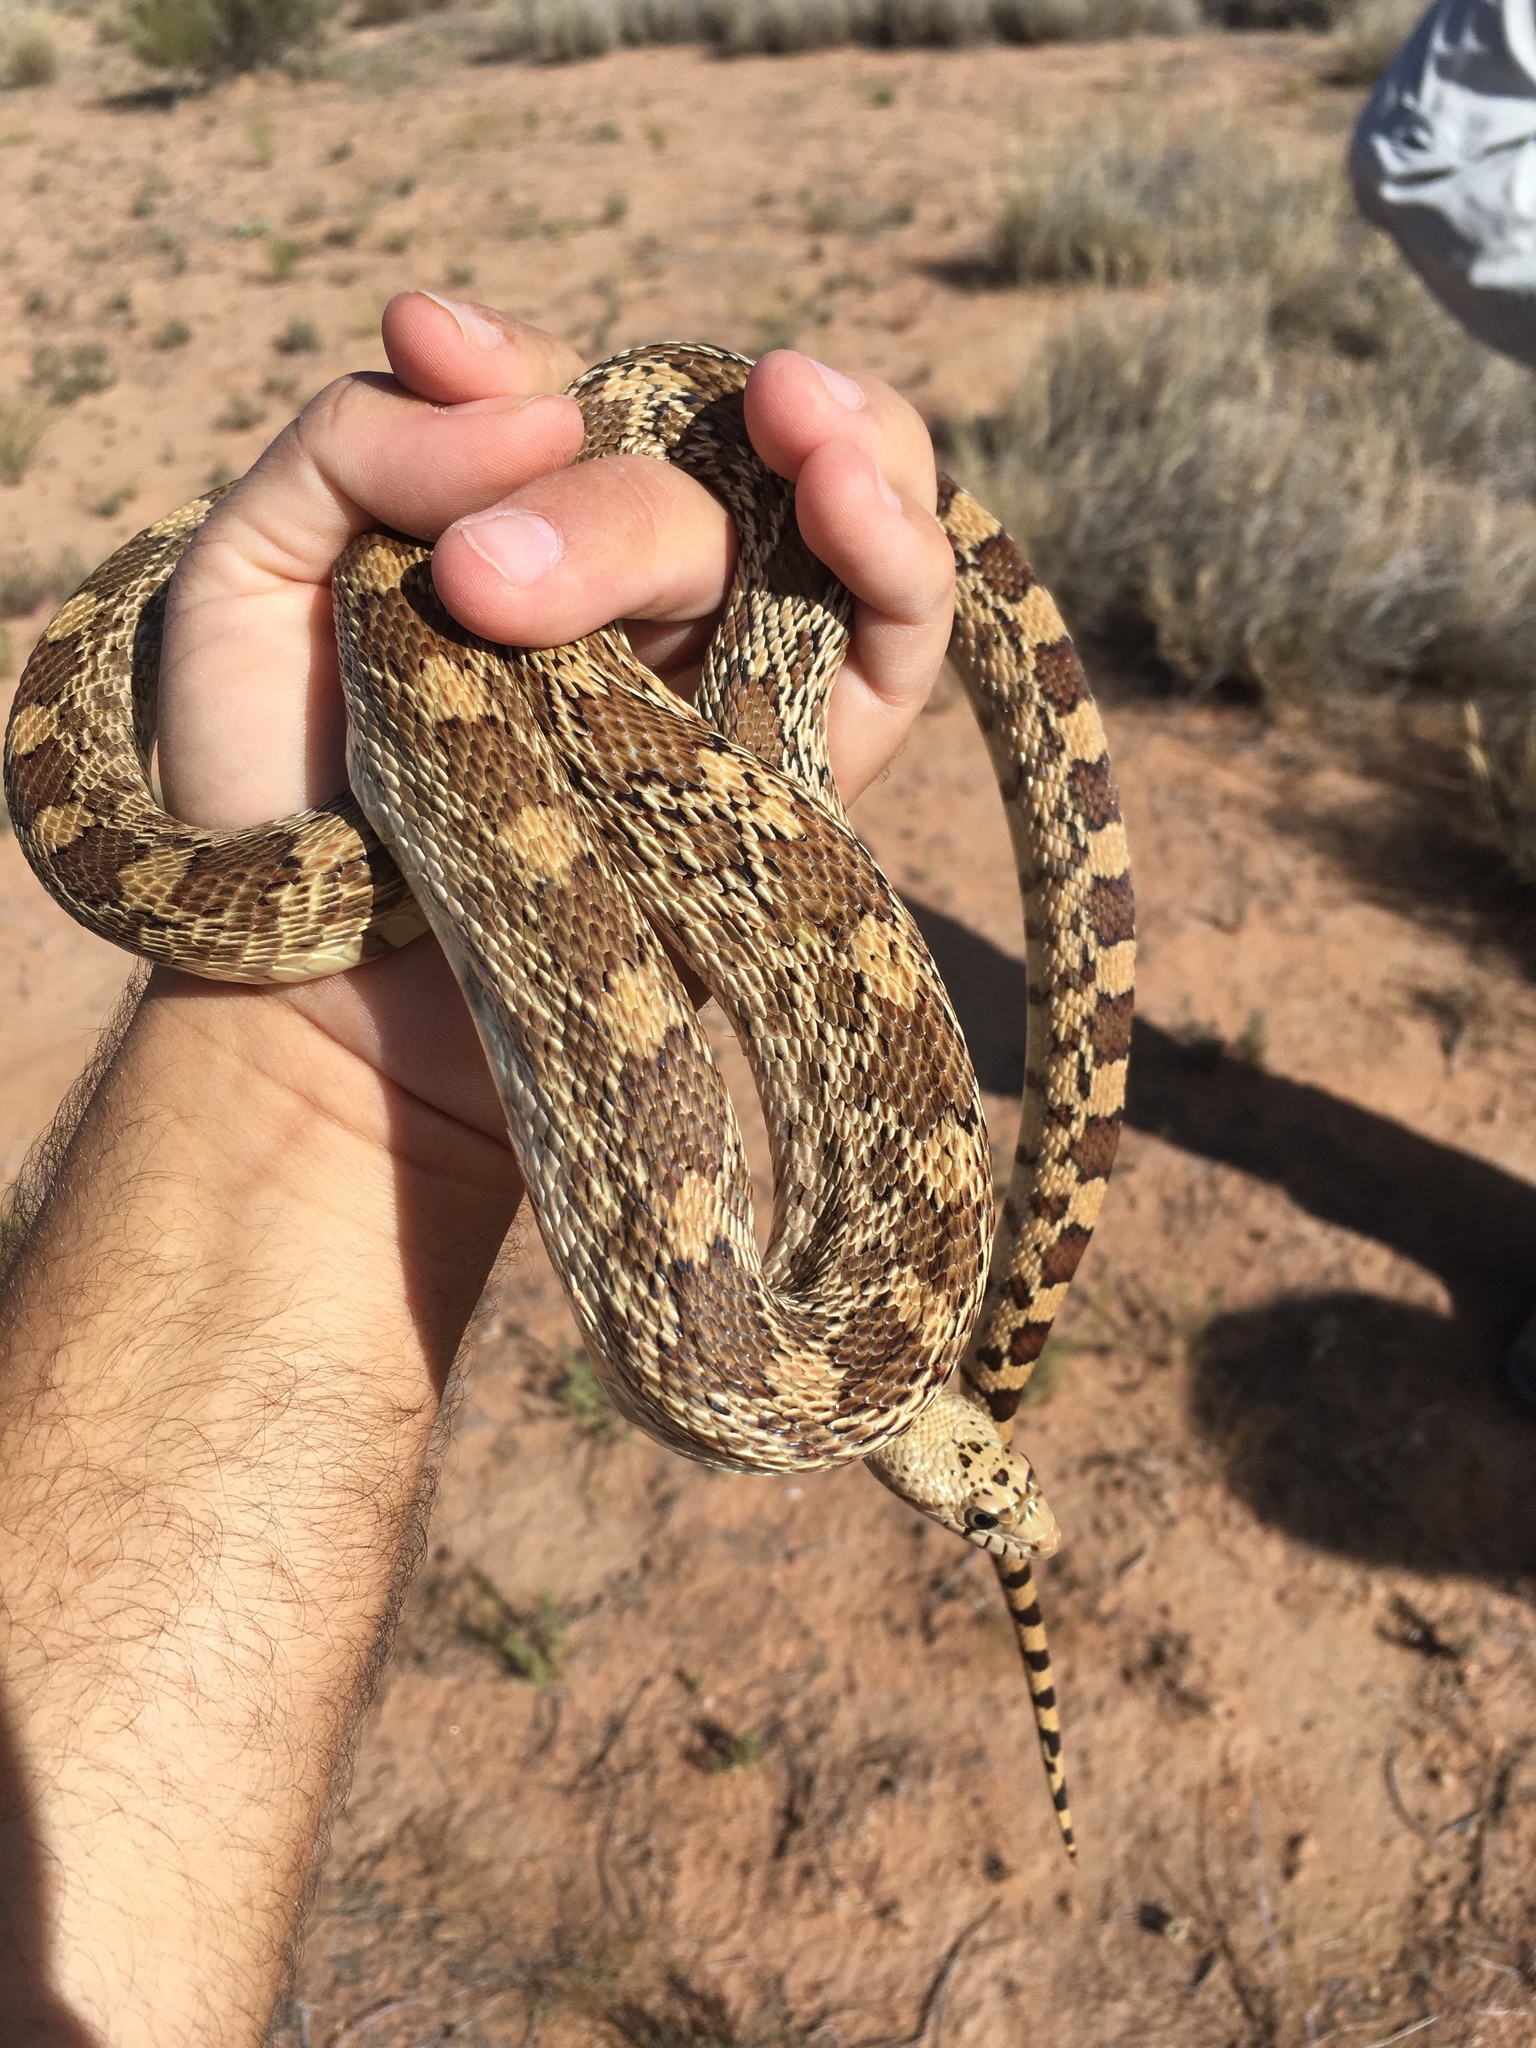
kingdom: Animalia
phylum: Chordata
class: Squamata
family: Colubridae
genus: Pituophis
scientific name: Pituophis catenifer
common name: Gopher snake
